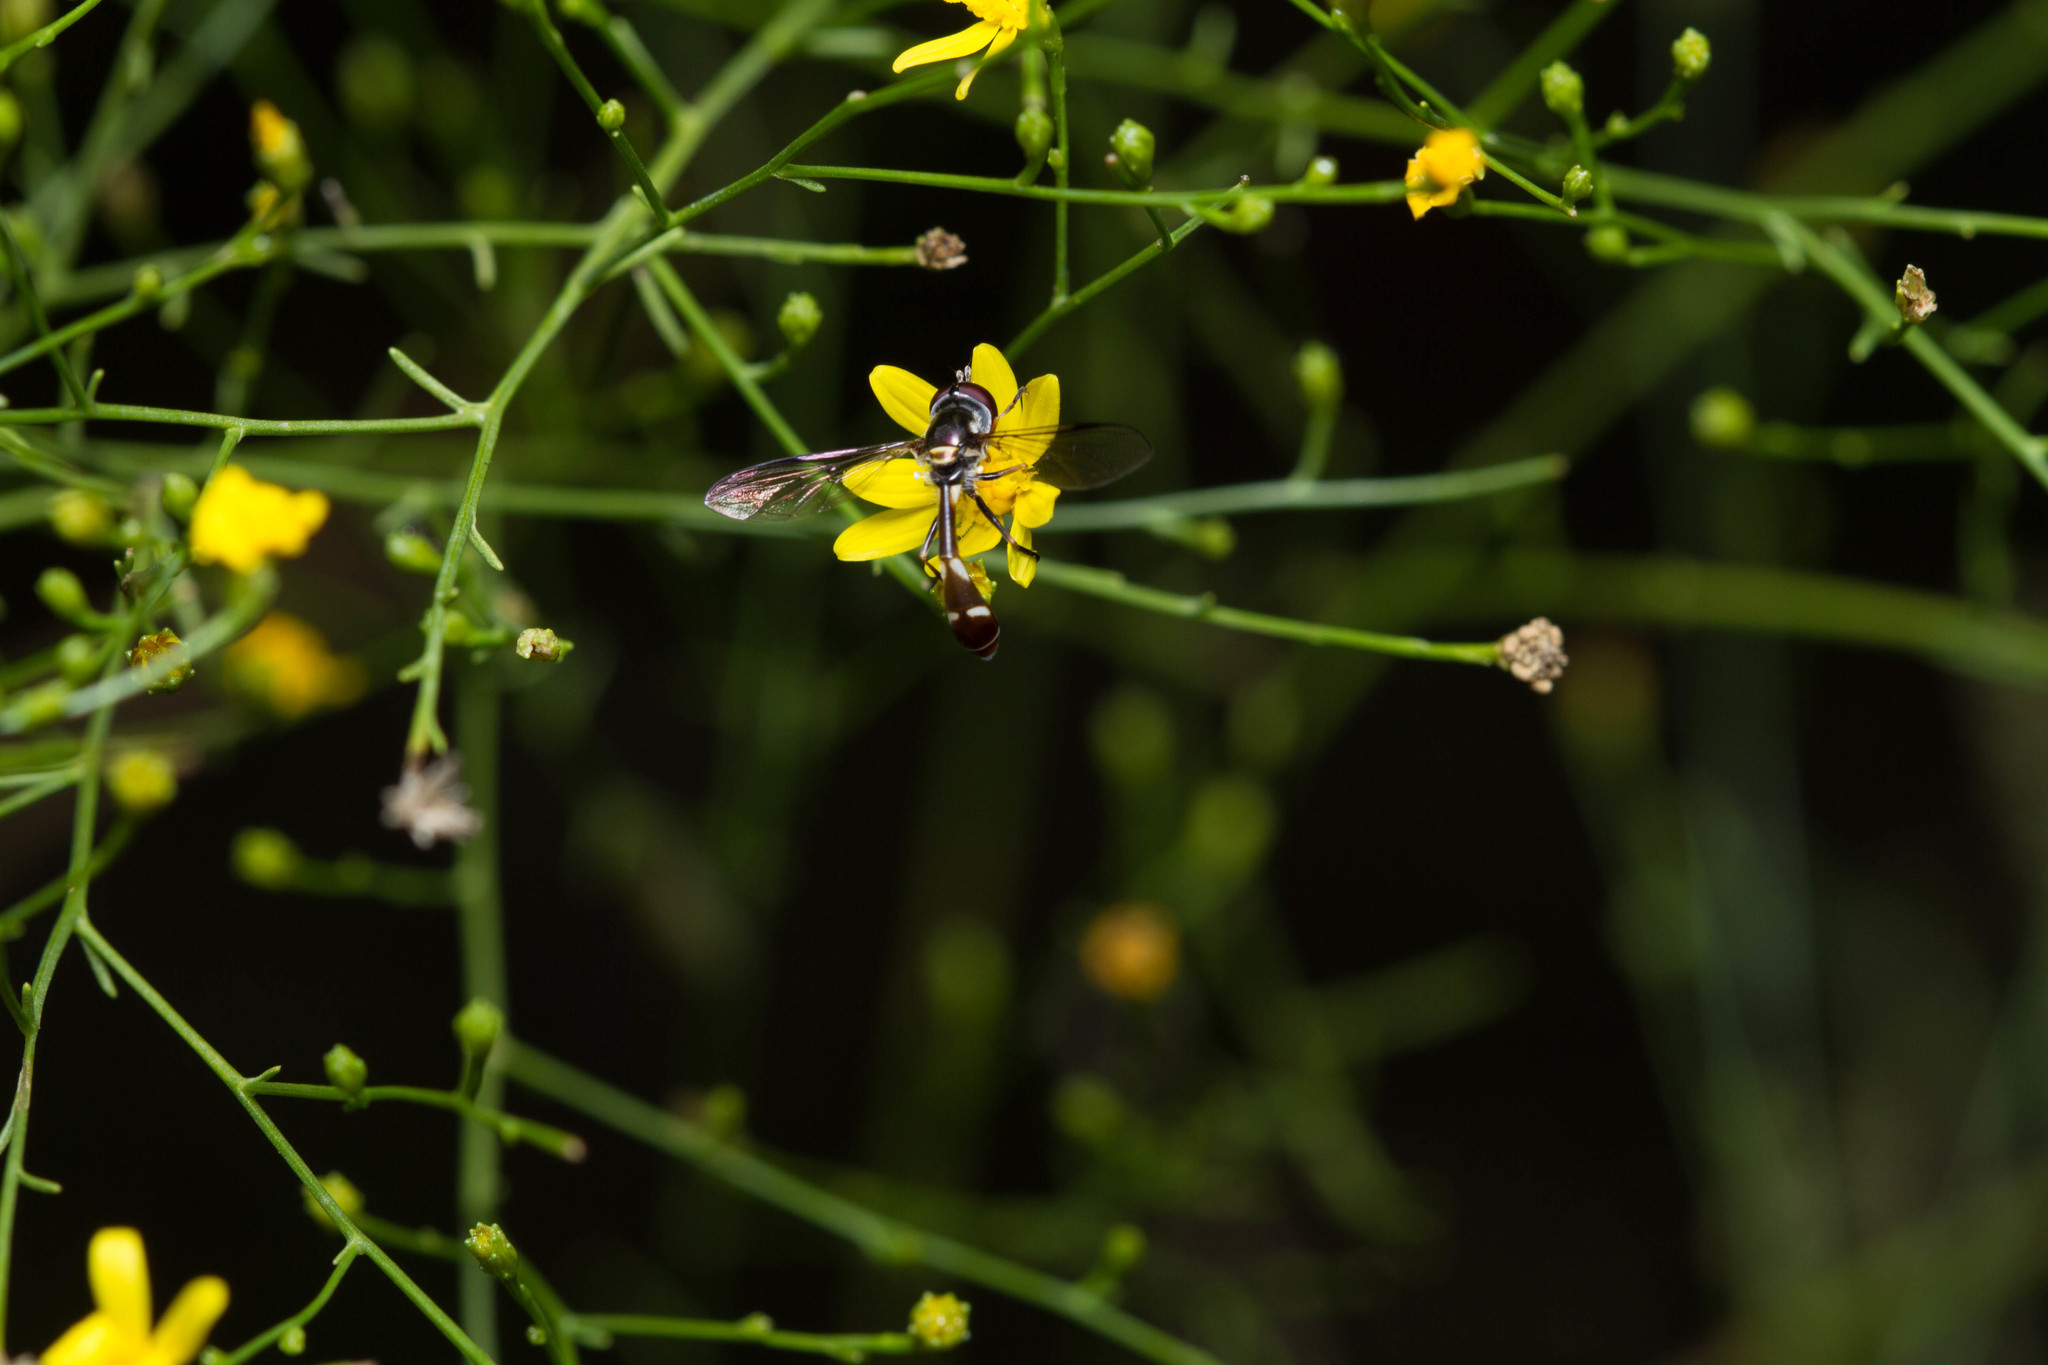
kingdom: Animalia
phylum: Arthropoda
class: Insecta
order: Diptera
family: Syrphidae
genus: Dioprosopa
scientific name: Dioprosopa clavatus
